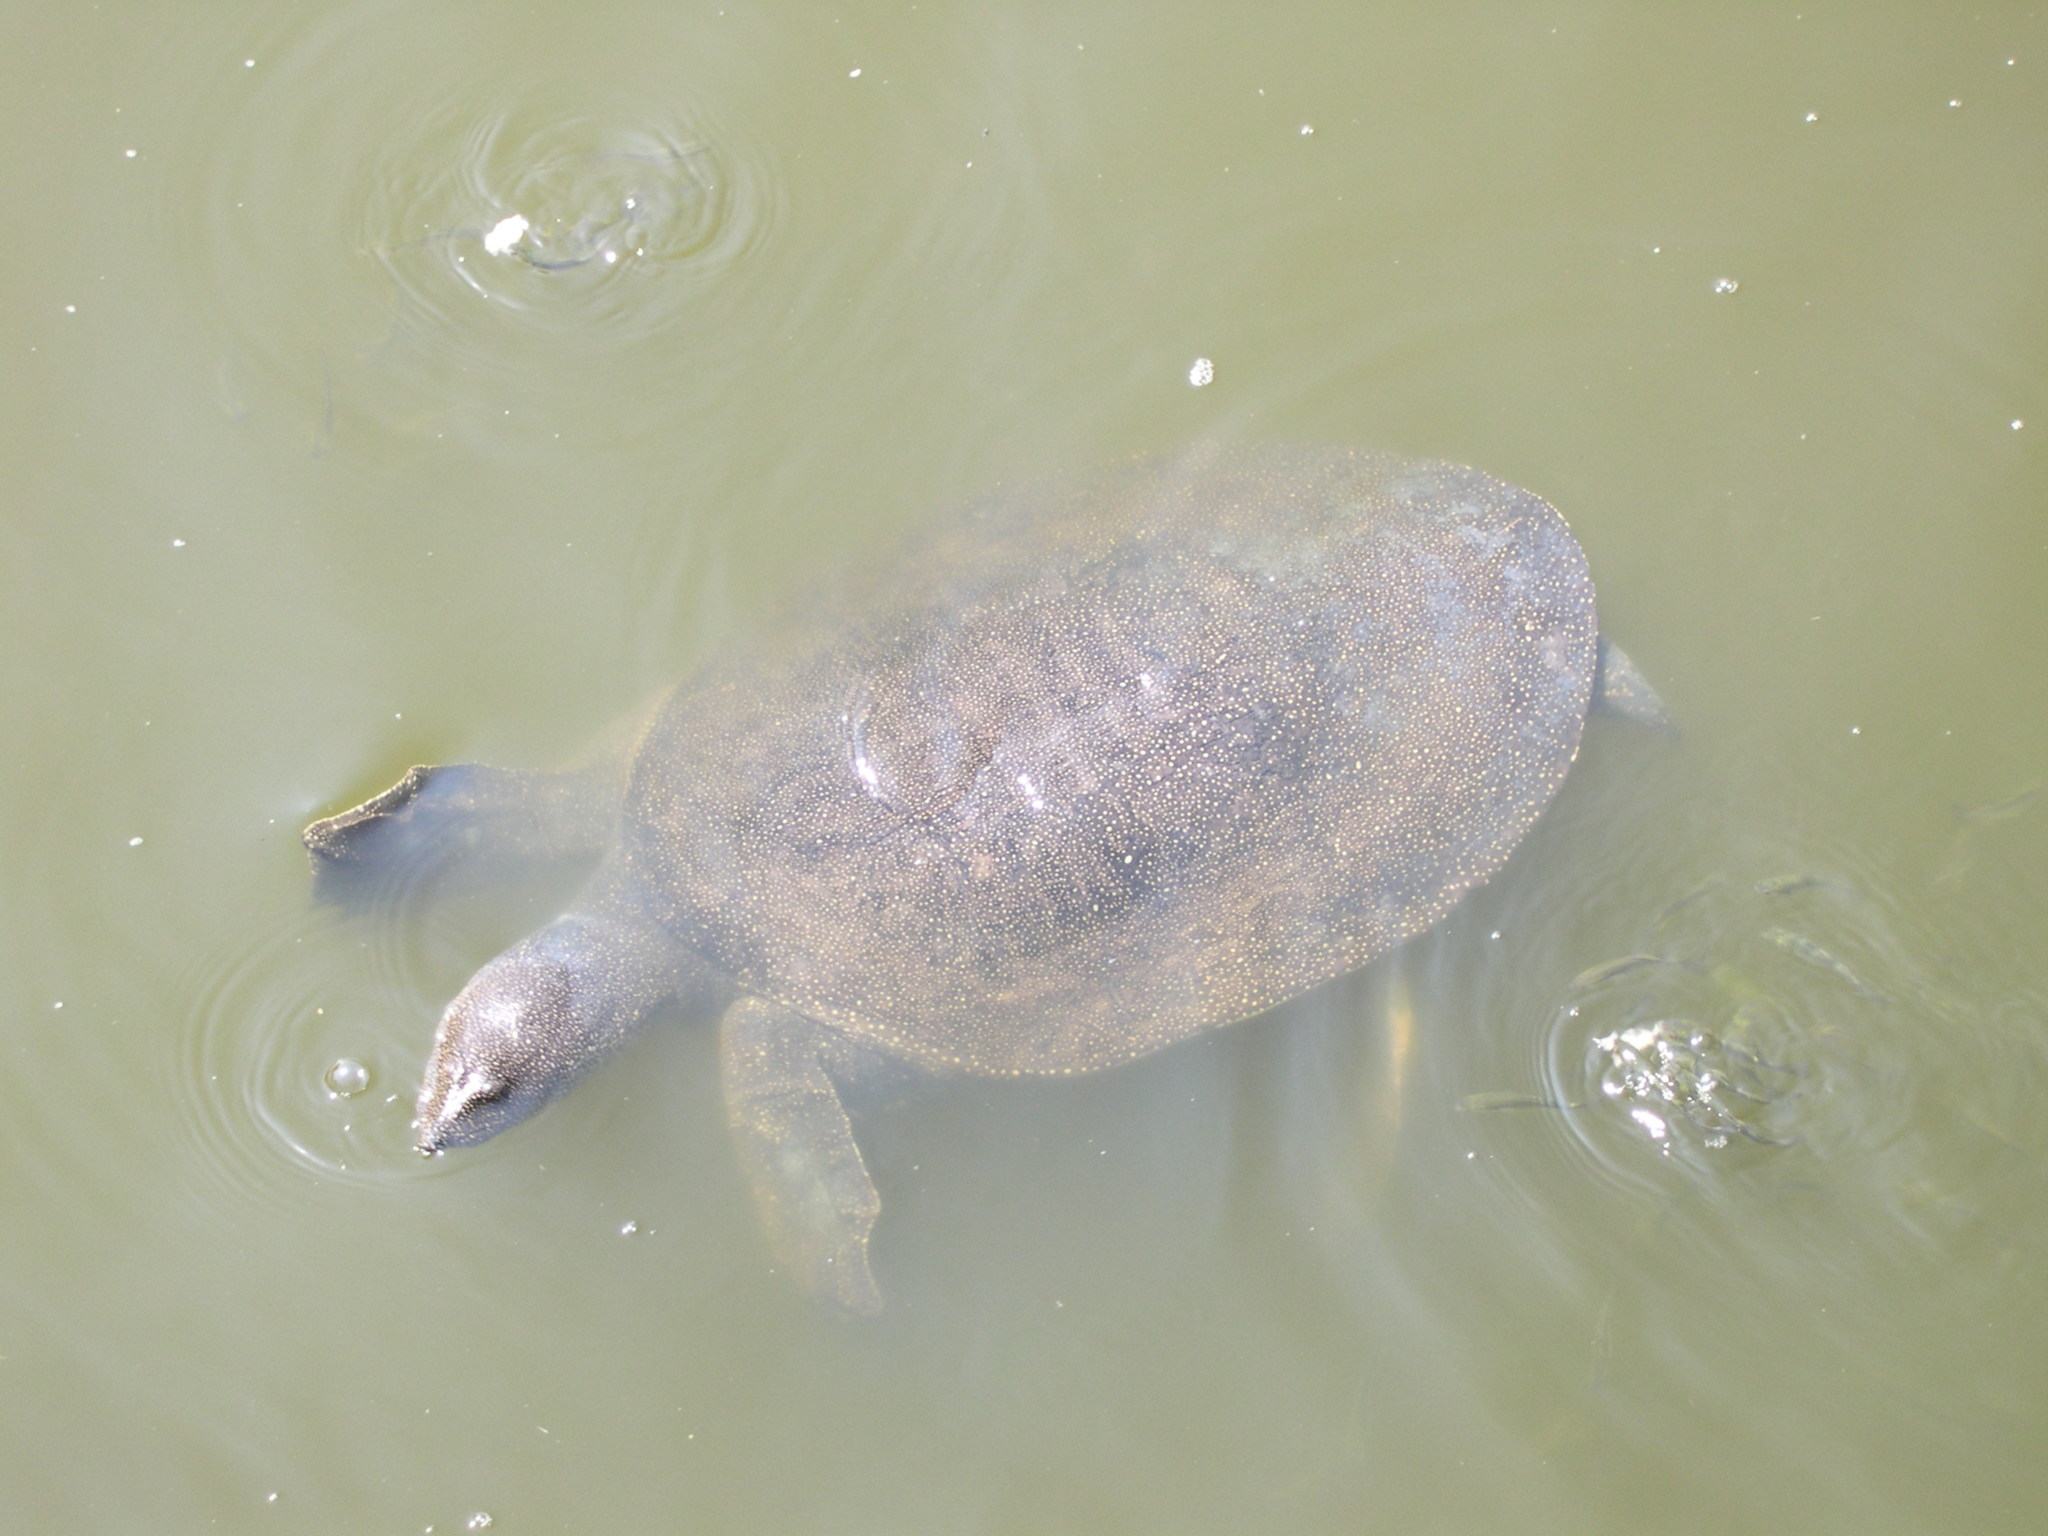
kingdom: Animalia
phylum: Chordata
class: Testudines
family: Trionychidae
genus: Trionyx
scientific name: Trionyx triunguis
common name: African softshell turtle
